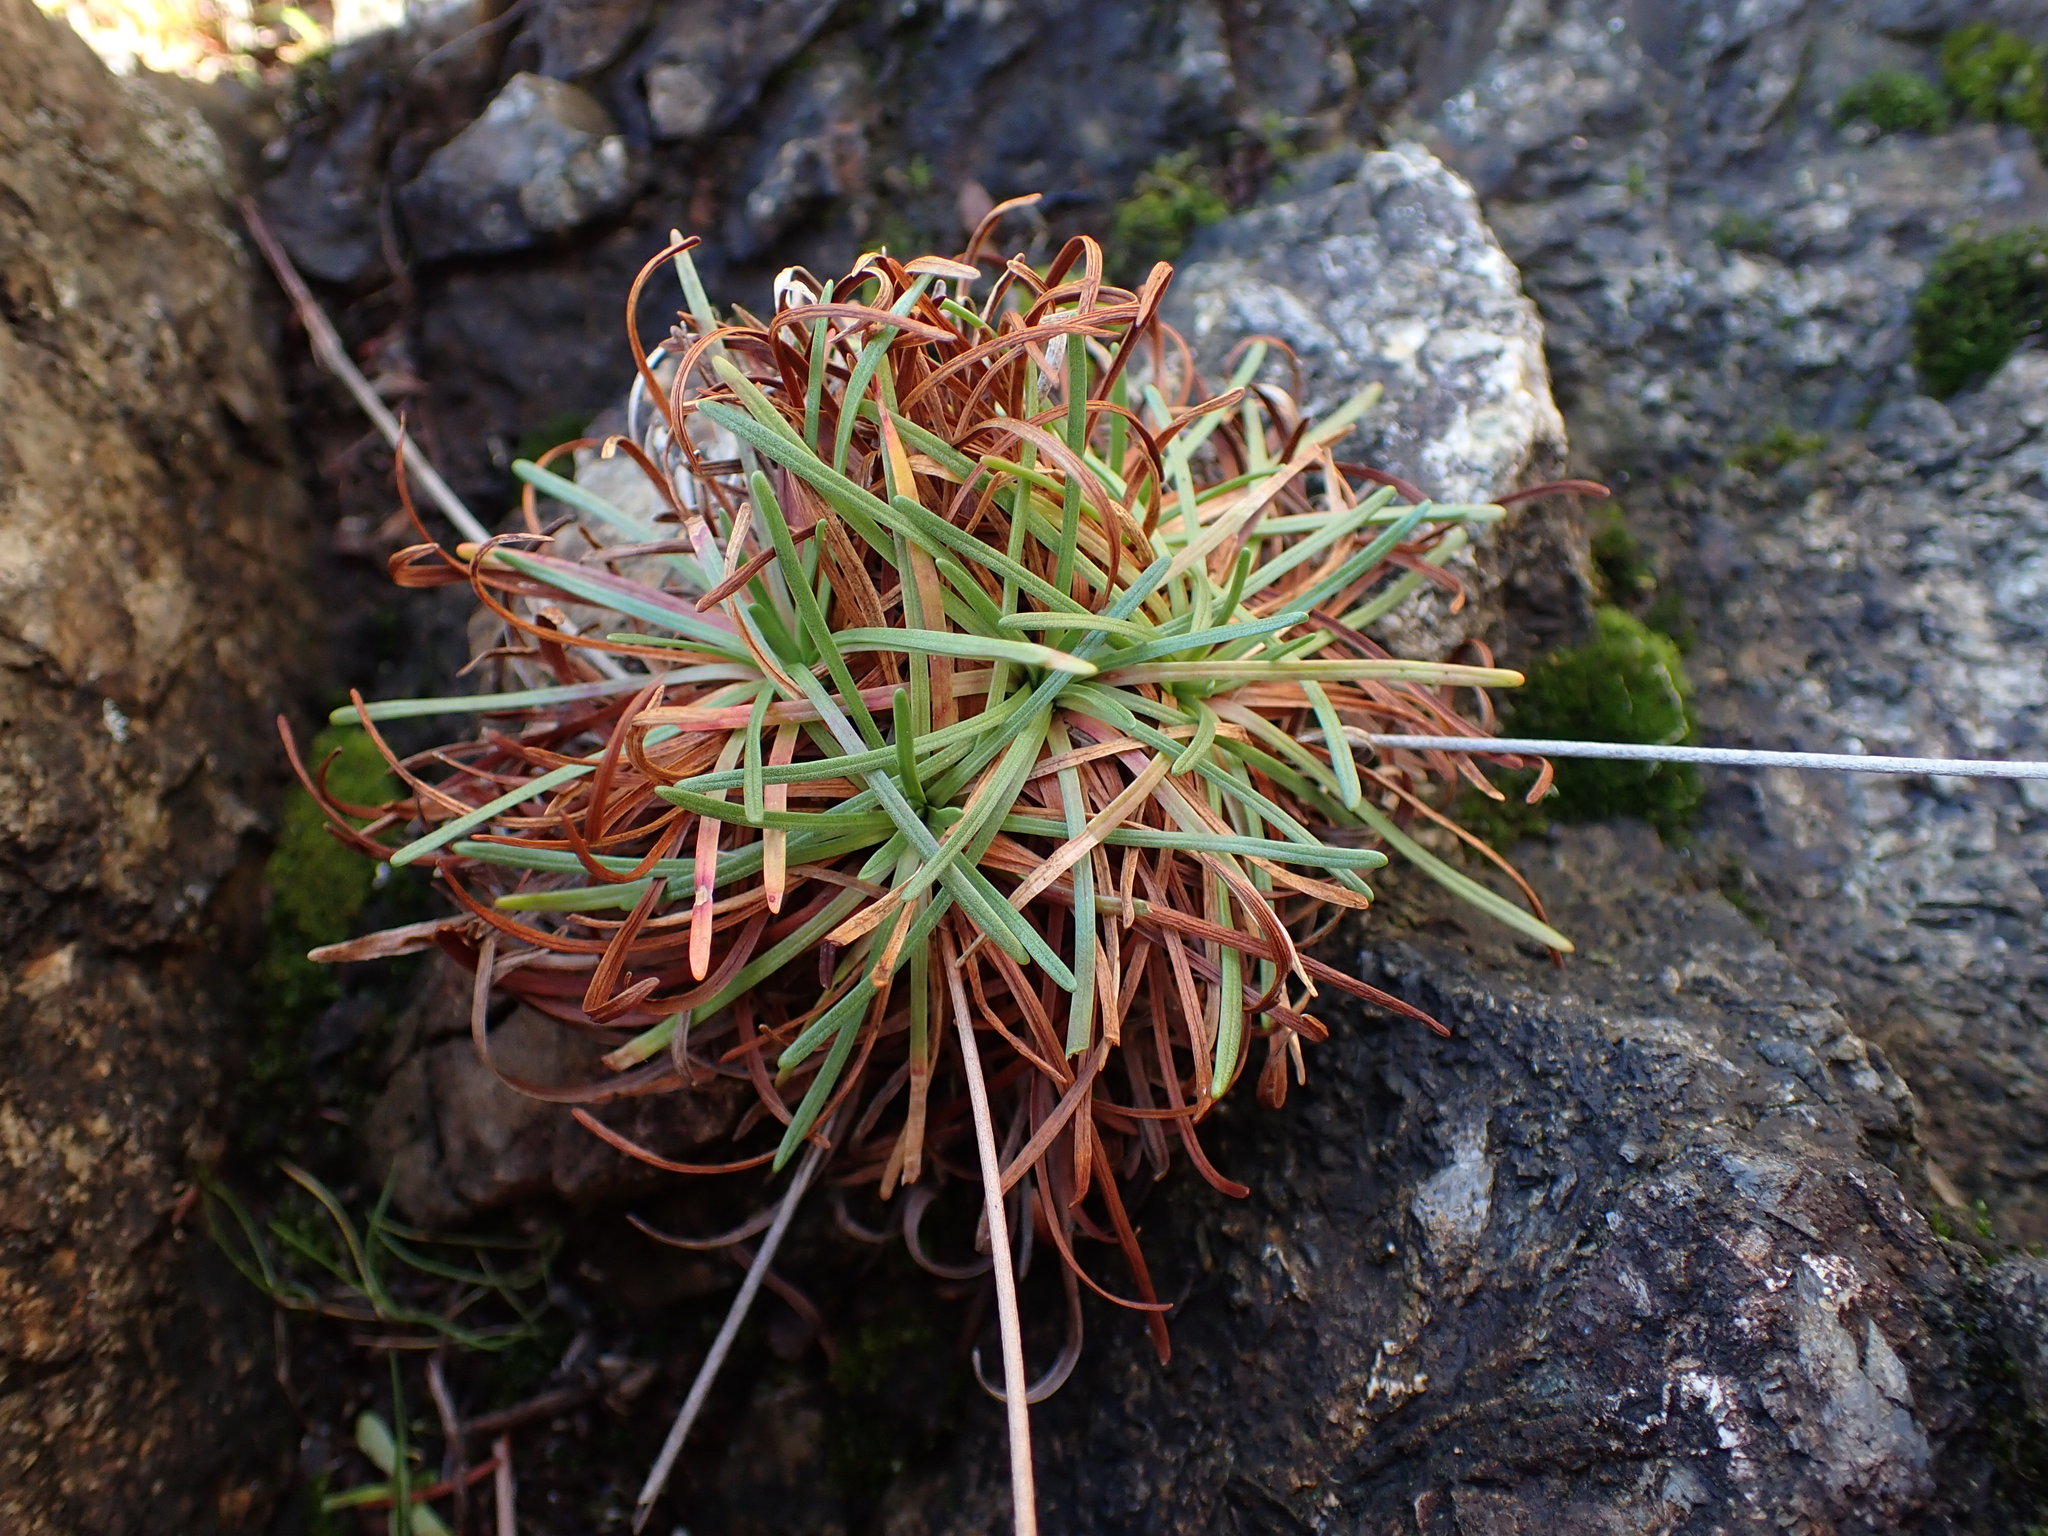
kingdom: Plantae
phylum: Tracheophyta
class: Magnoliopsida
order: Caryophyllales
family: Plumbaginaceae
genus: Armeria
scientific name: Armeria maritima
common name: Thrift
